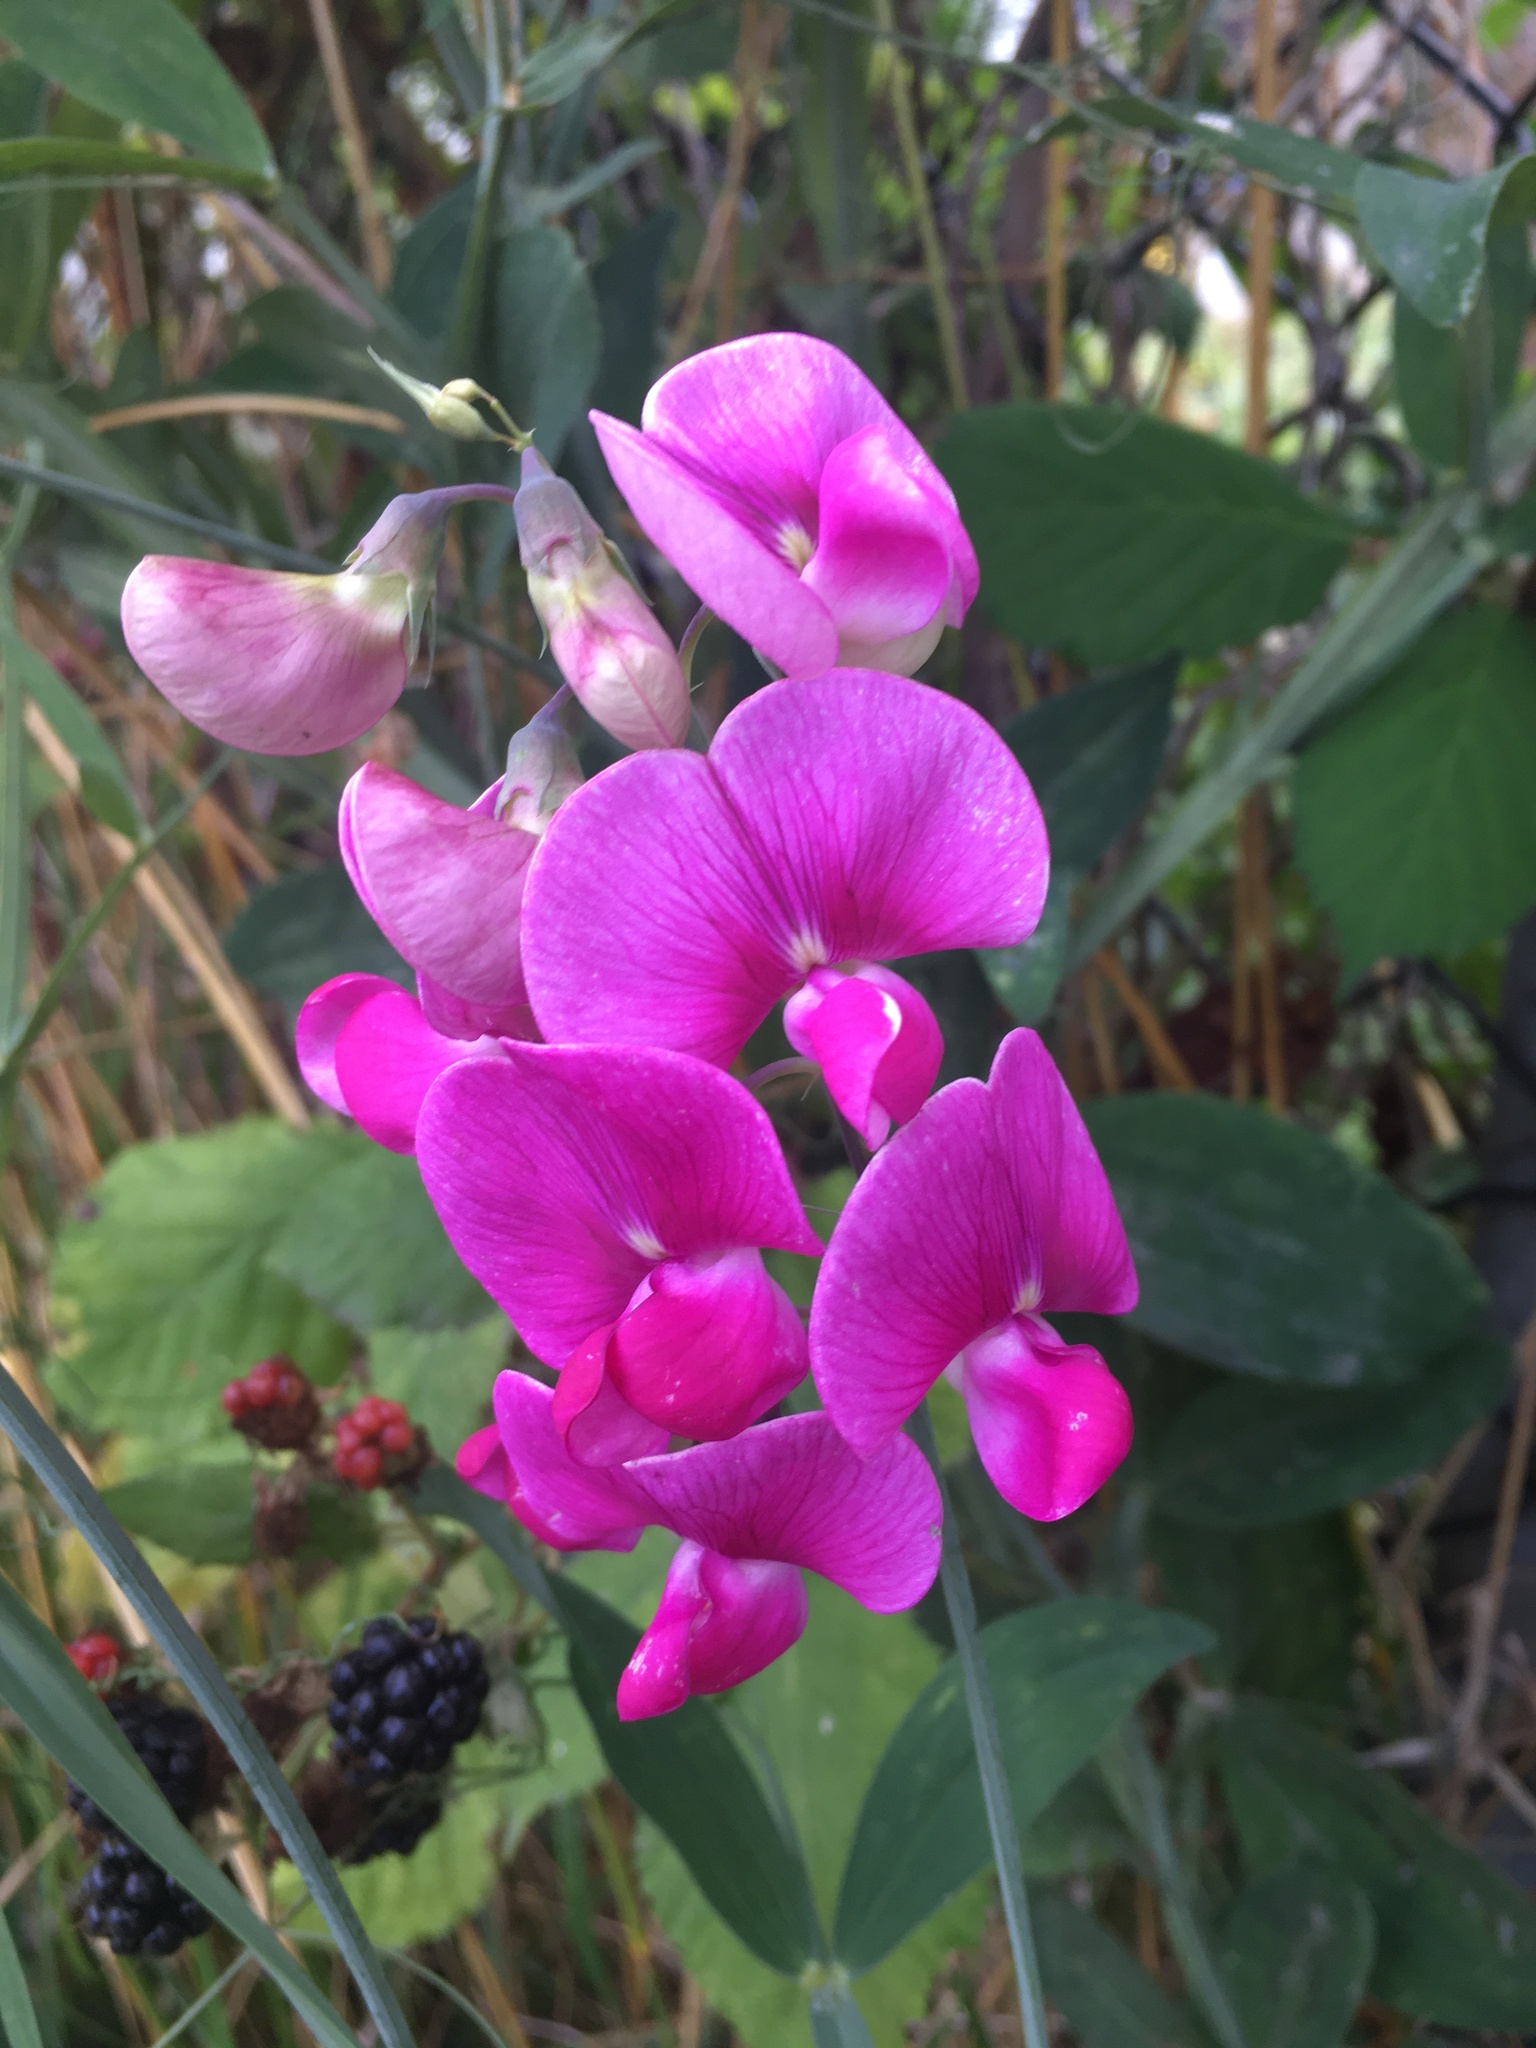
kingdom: Plantae
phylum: Tracheophyta
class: Magnoliopsida
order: Fabales
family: Fabaceae
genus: Lathyrus
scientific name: Lathyrus latifolius
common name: Perennial pea
